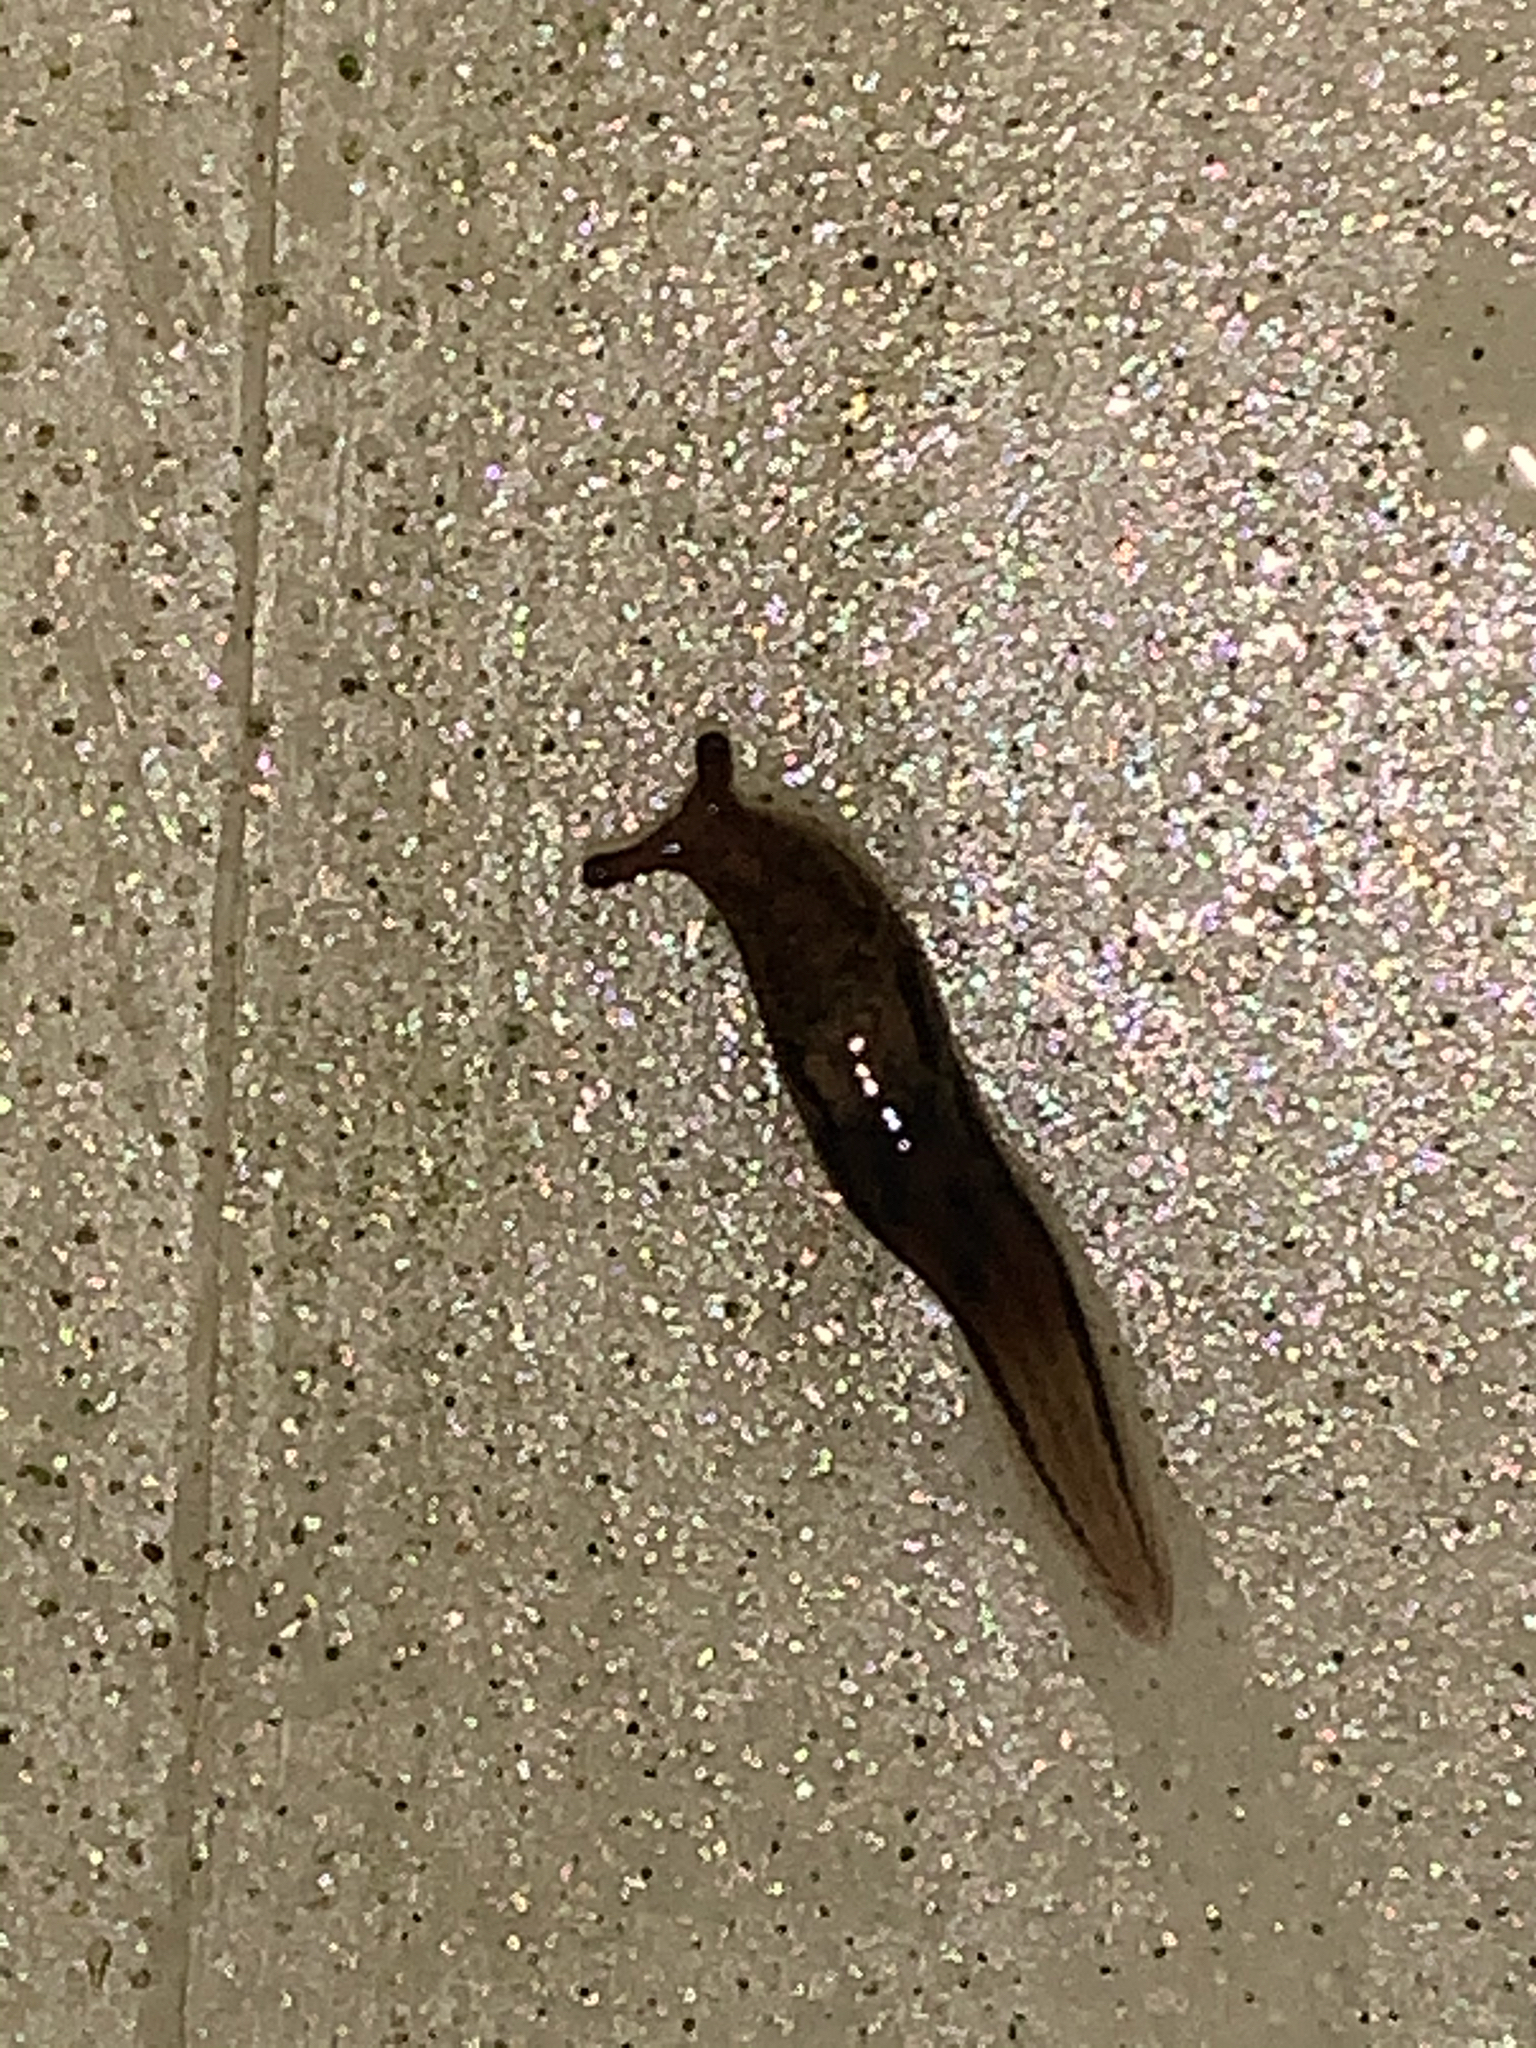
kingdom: Animalia
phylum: Mollusca
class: Gastropoda
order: Stylommatophora
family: Limacidae
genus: Limax
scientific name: Limax maximus
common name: Great grey slug
